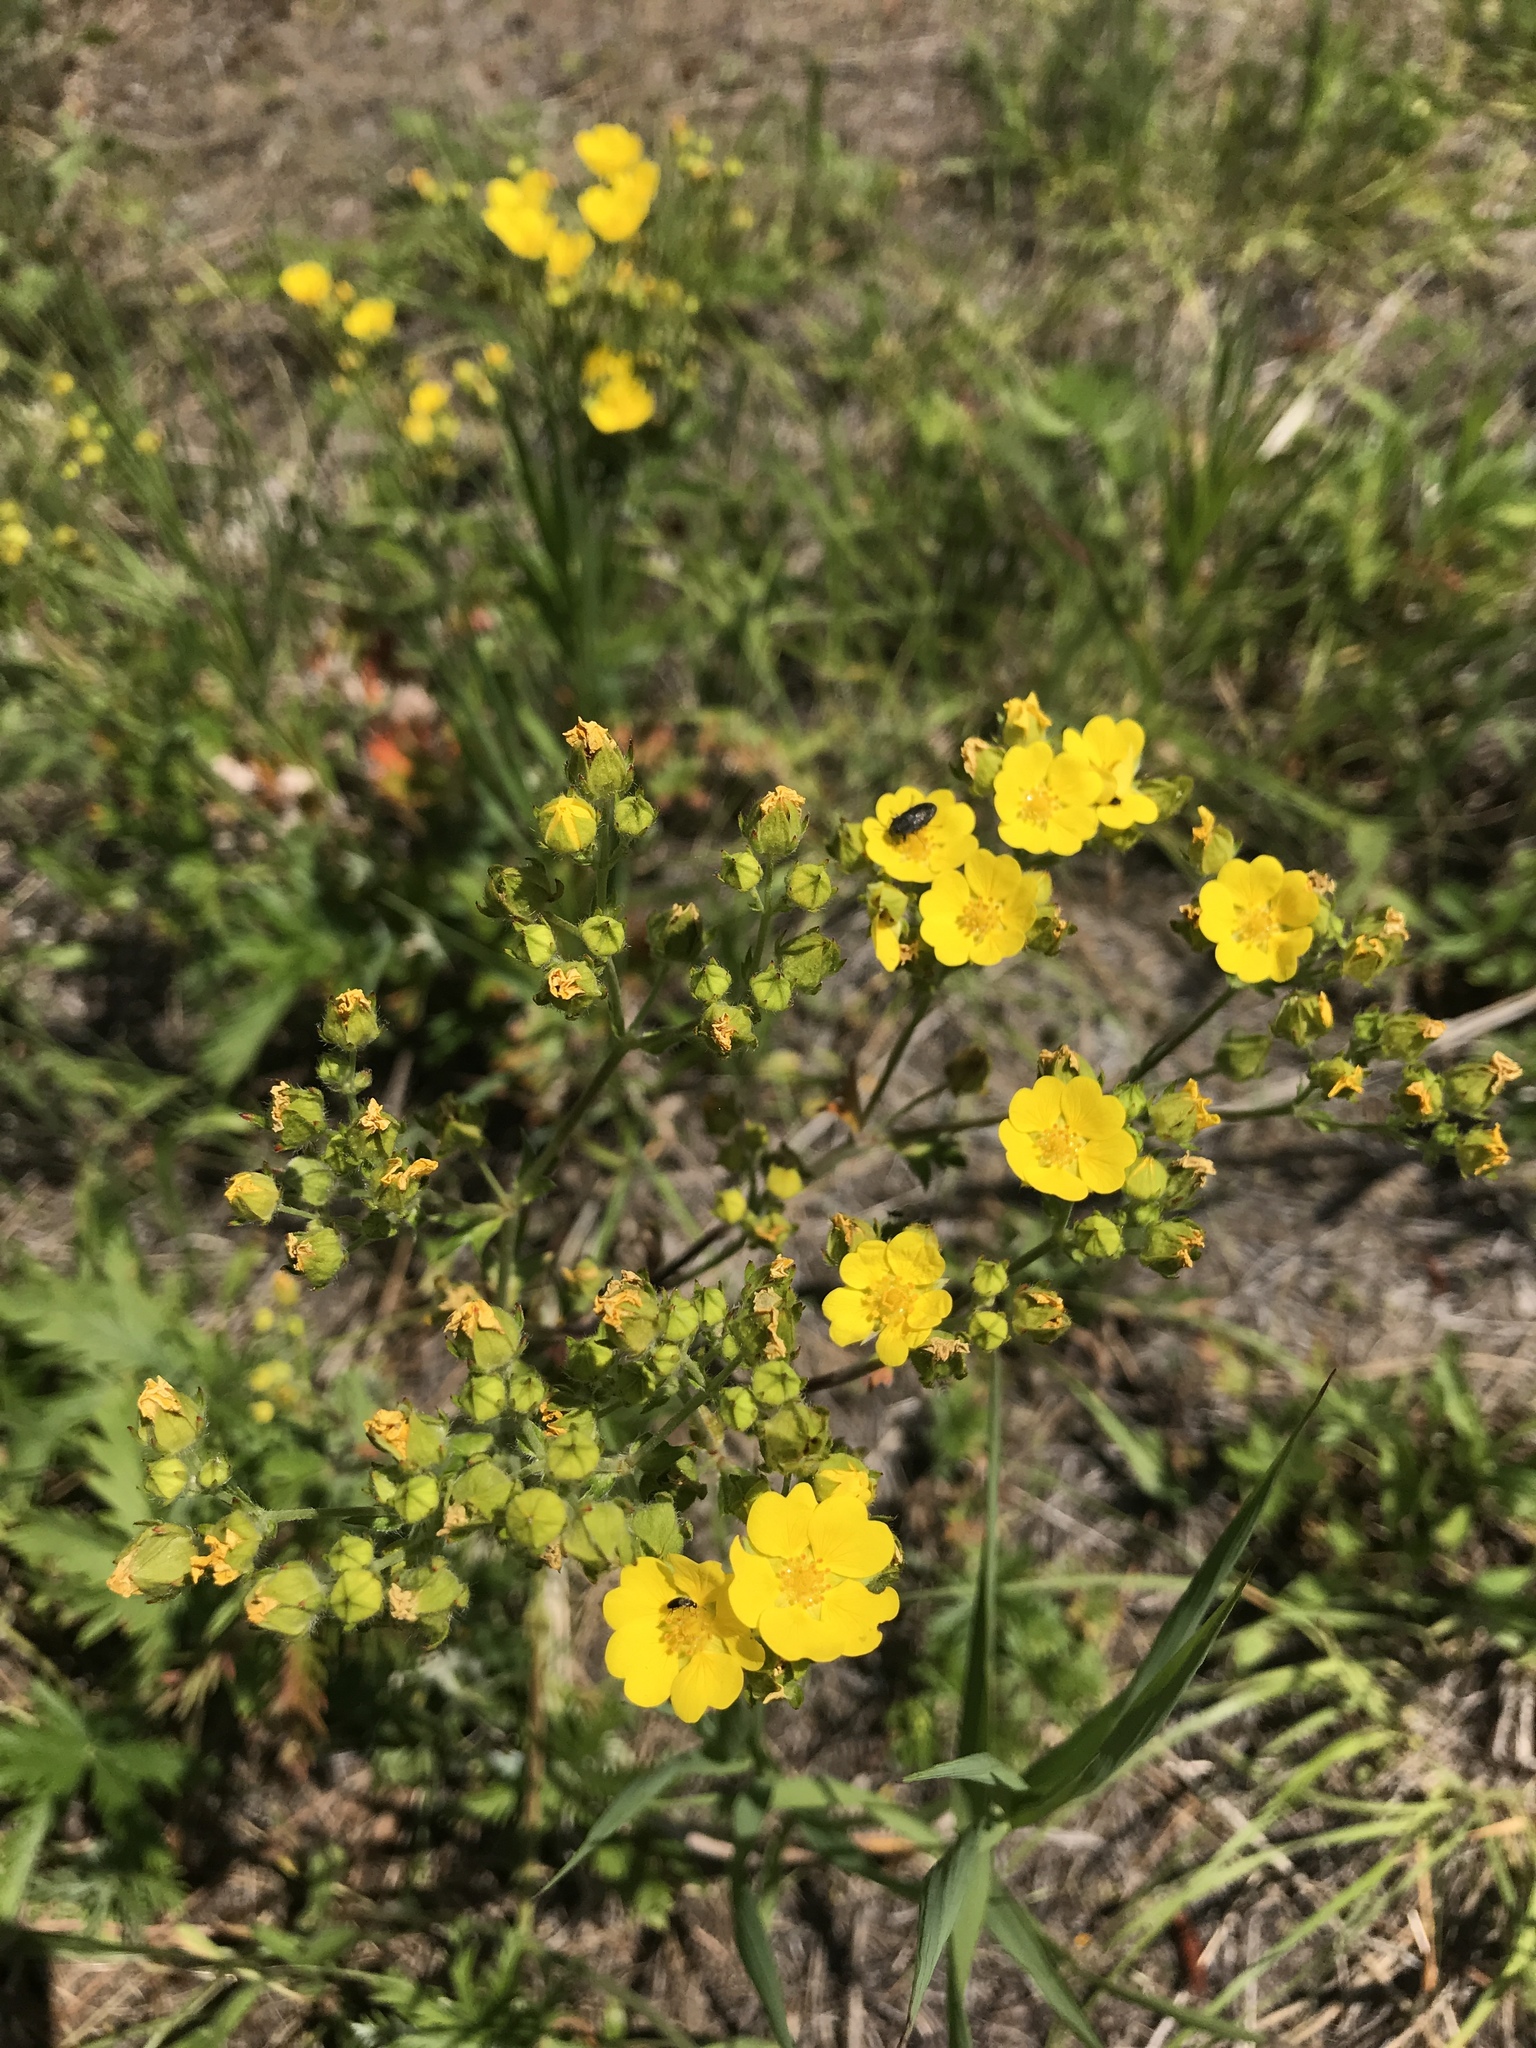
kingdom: Plantae
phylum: Tracheophyta
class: Magnoliopsida
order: Rosales
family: Rosaceae
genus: Potentilla
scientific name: Potentilla gracilis
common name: Graceful cinquefoil
